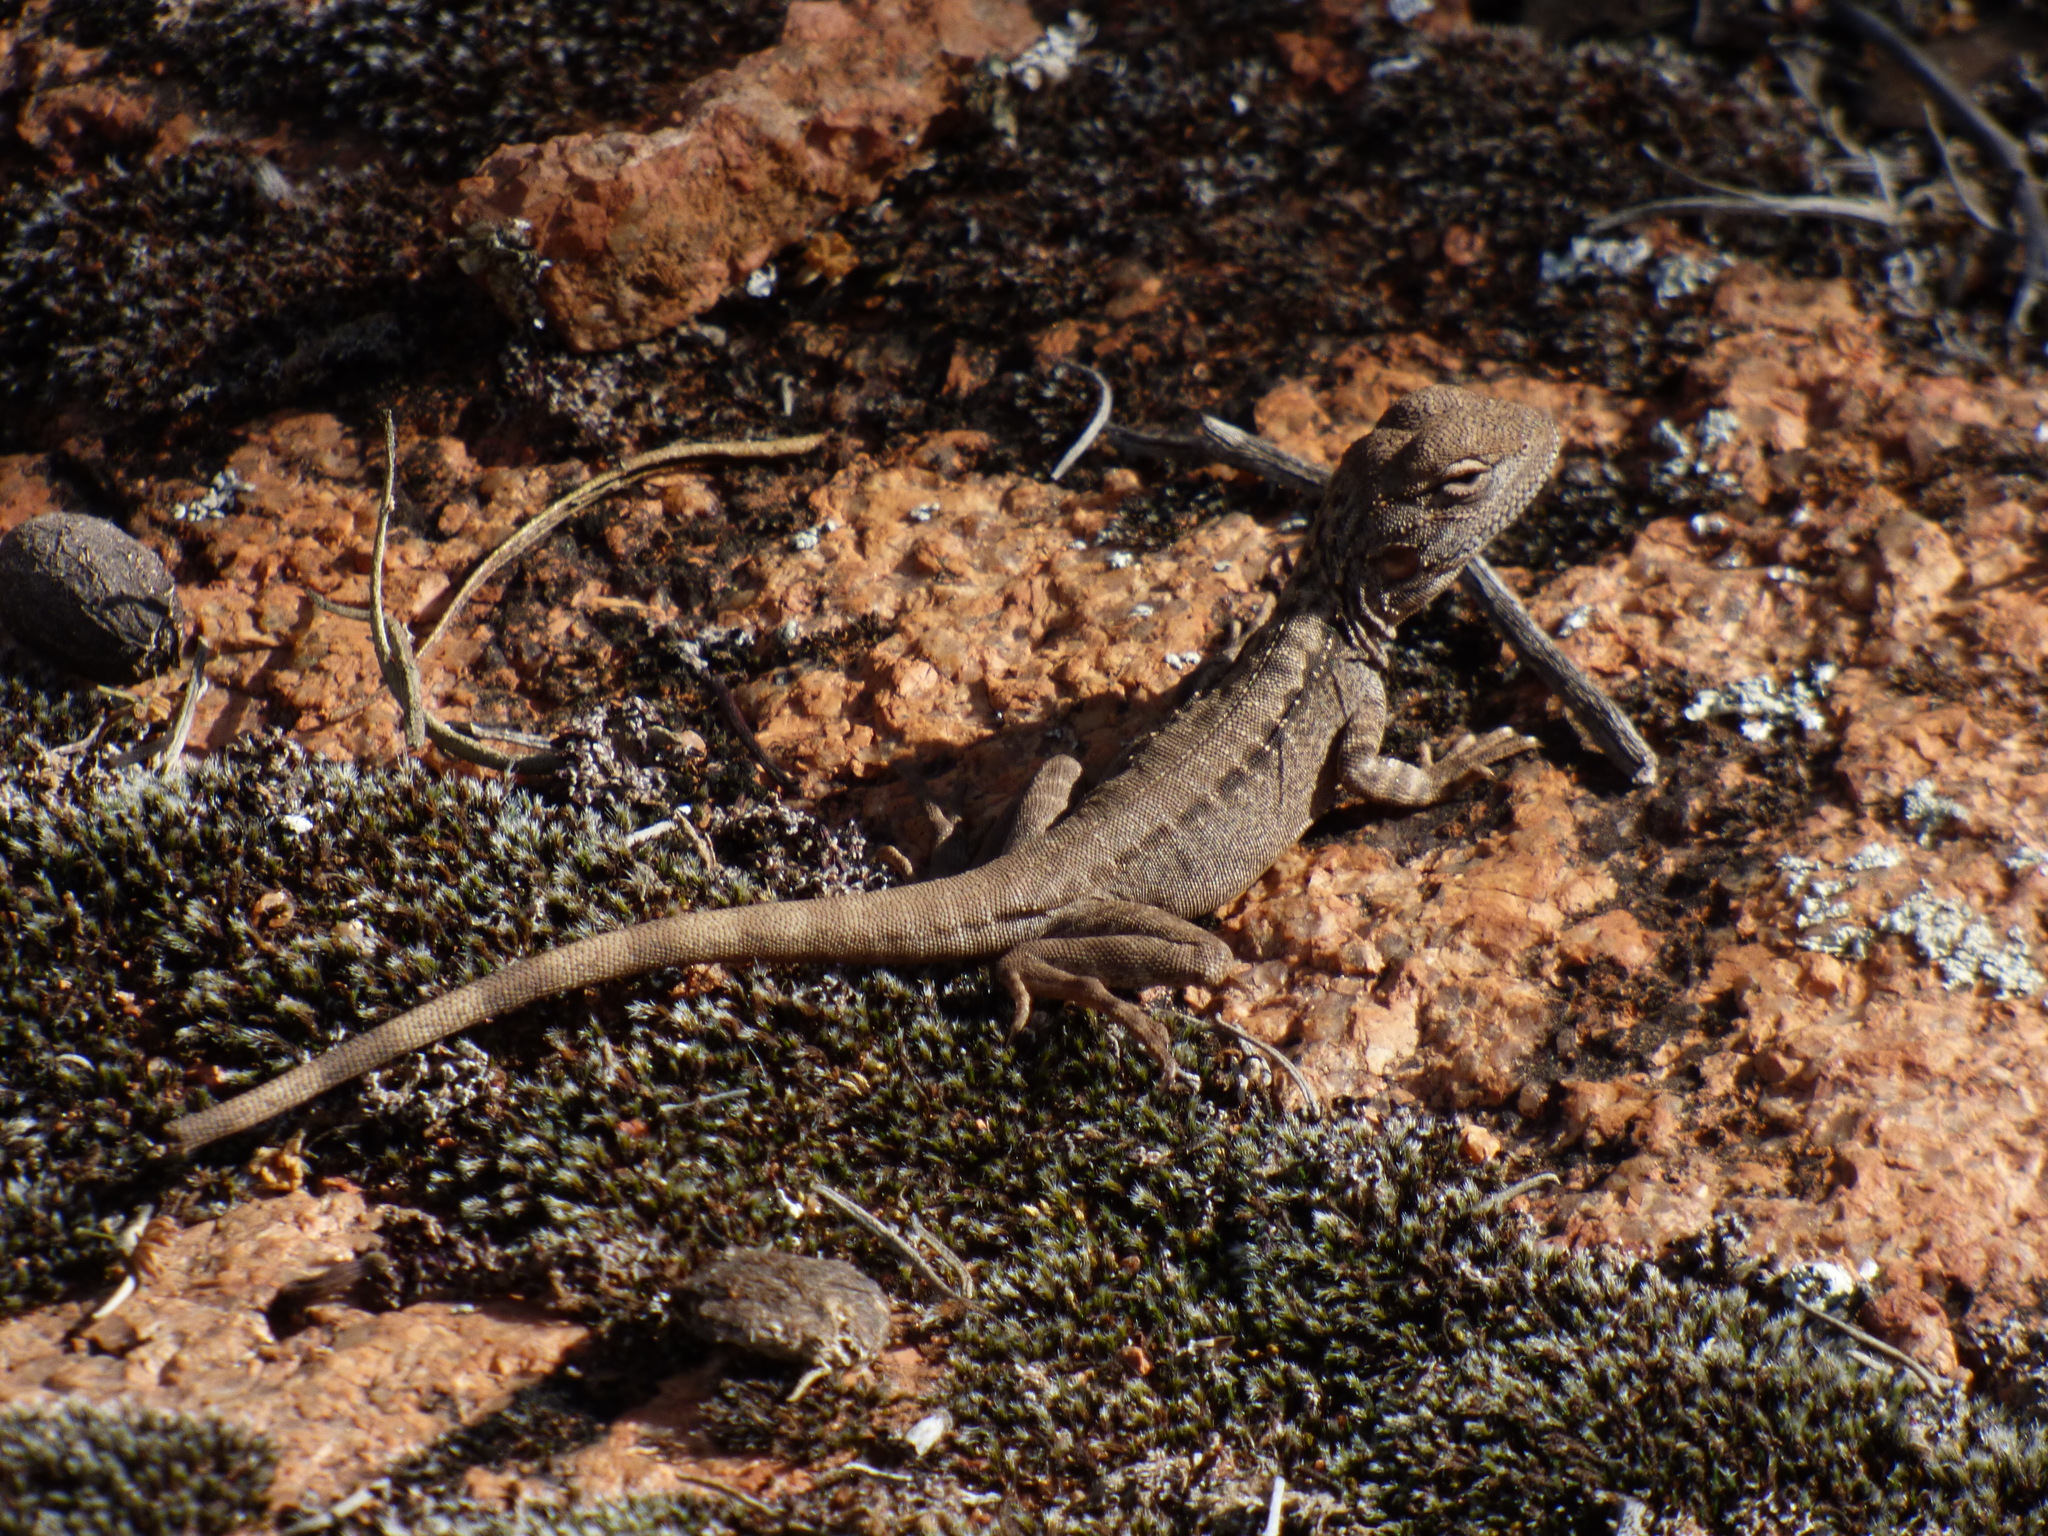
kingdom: Animalia
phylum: Chordata
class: Squamata
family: Agamidae
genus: Ctenophorus
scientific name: Ctenophorus cristatus
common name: Crested dragon
